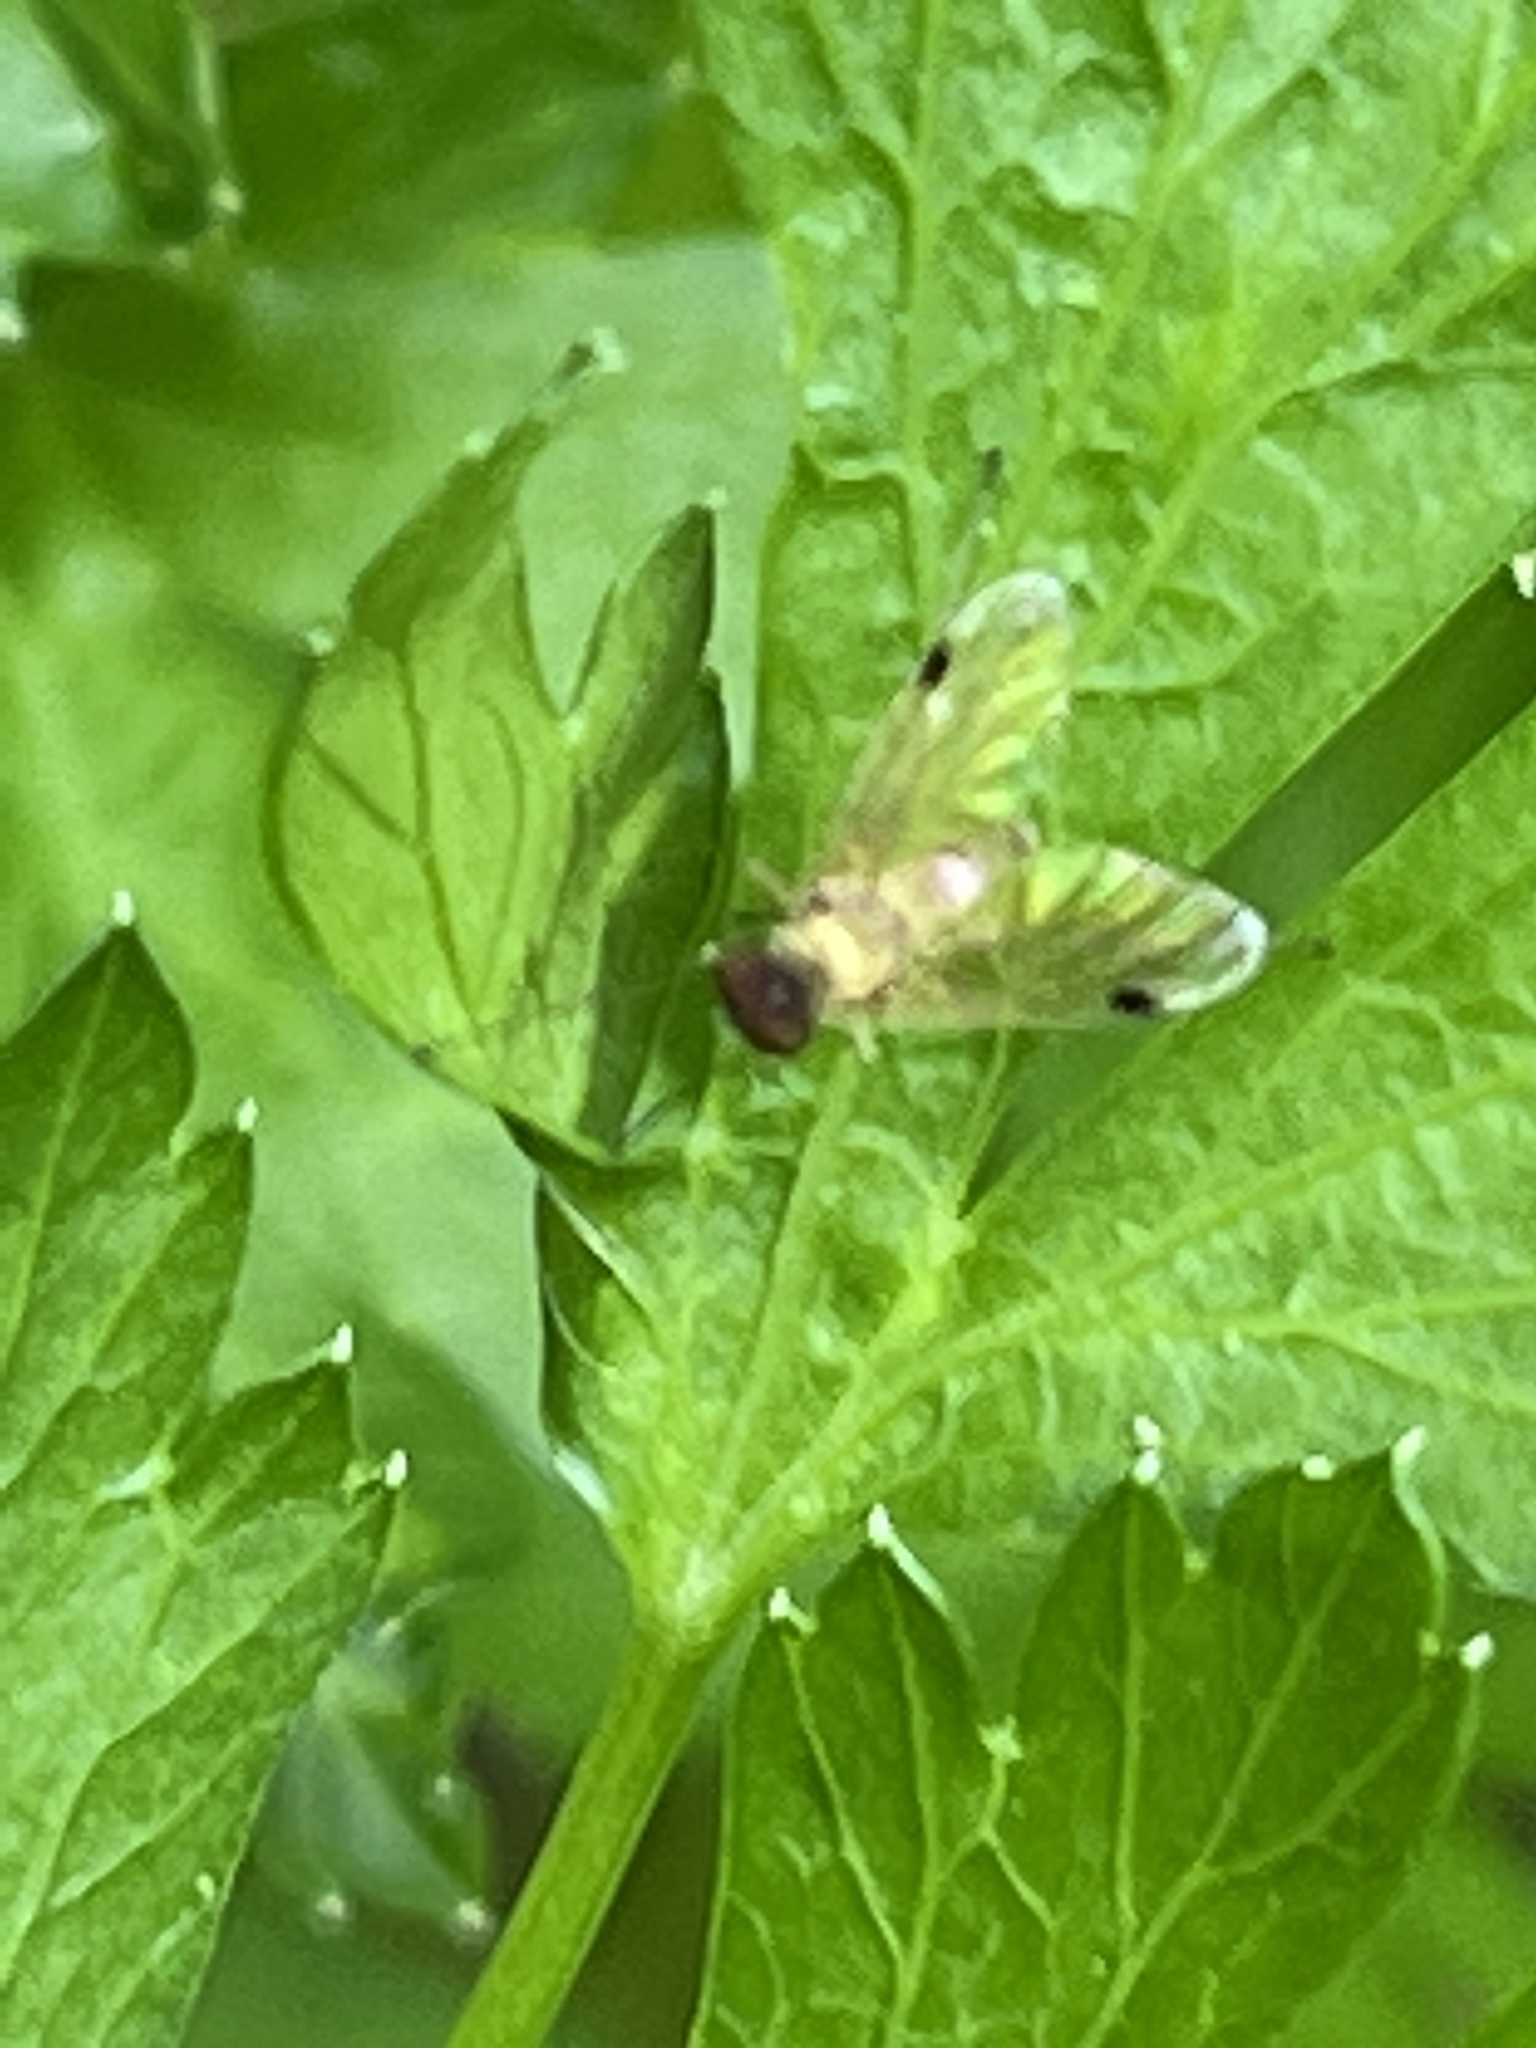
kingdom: Animalia
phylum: Arthropoda
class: Insecta
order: Diptera
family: Rhagionidae
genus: Chrysopilus
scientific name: Chrysopilus modestus
